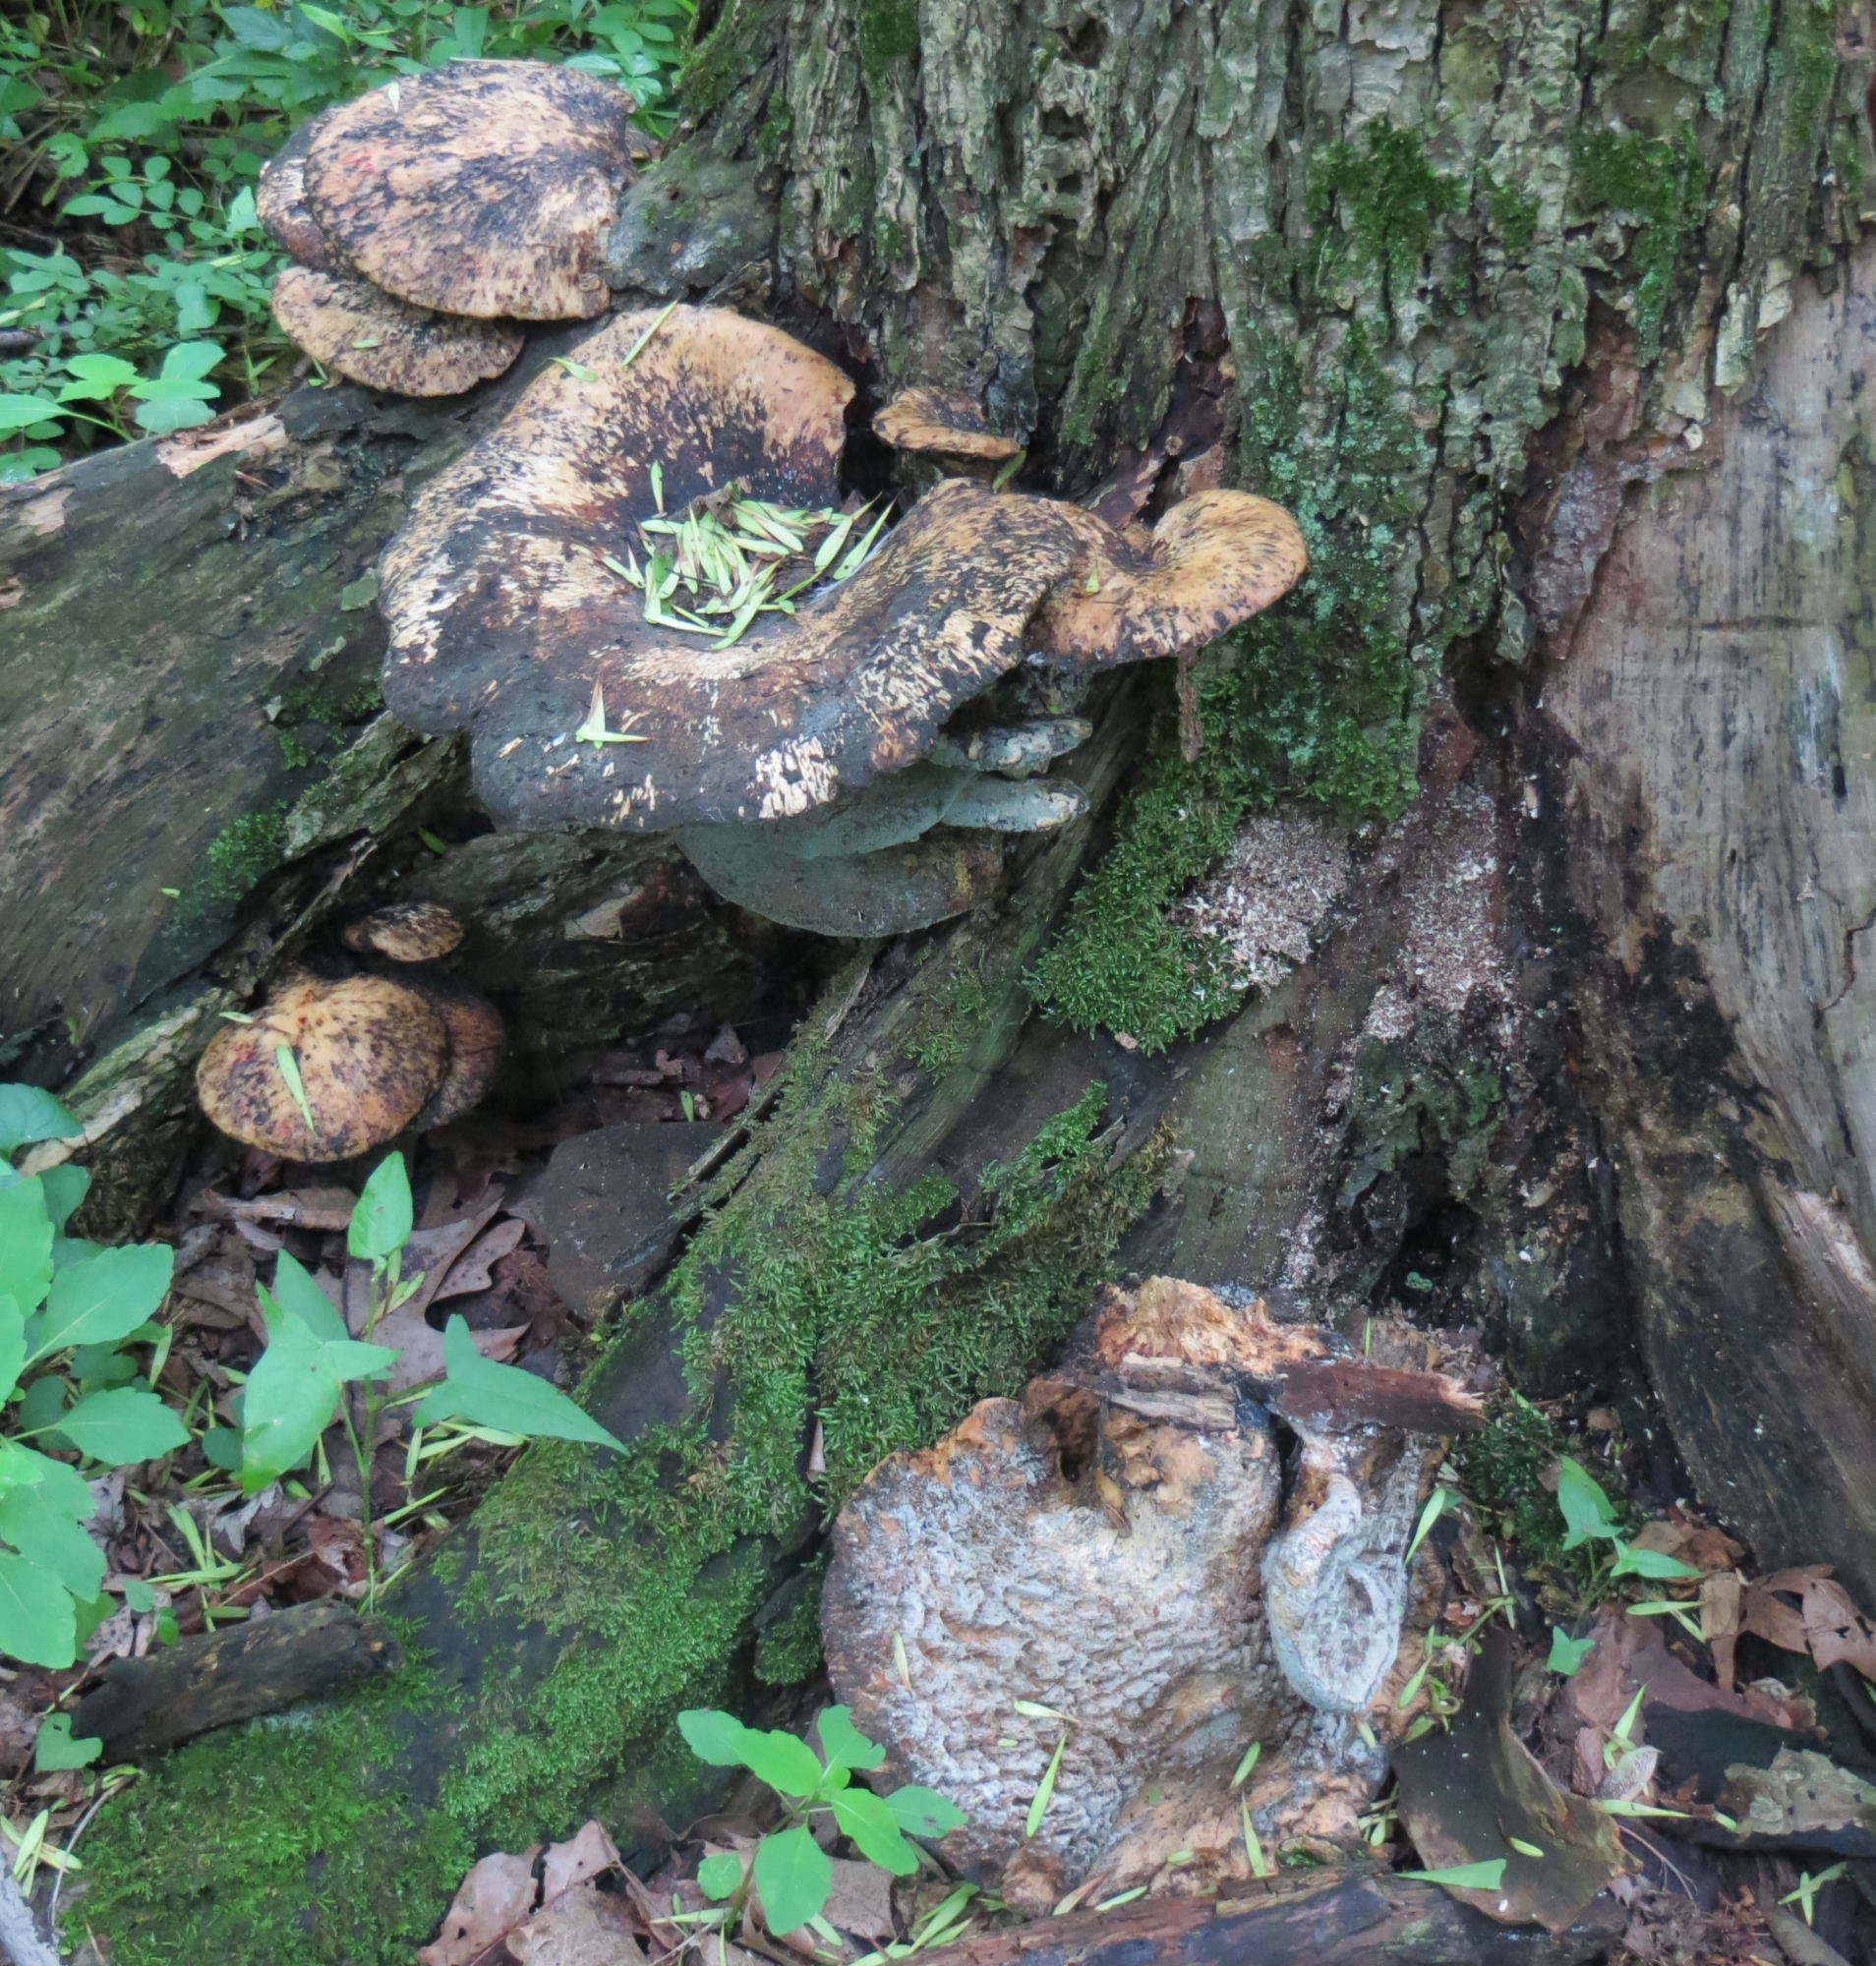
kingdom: Fungi
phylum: Basidiomycota
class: Agaricomycetes
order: Polyporales
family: Polyporaceae
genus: Cerioporus
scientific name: Cerioporus squamosus
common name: Dryad's saddle
